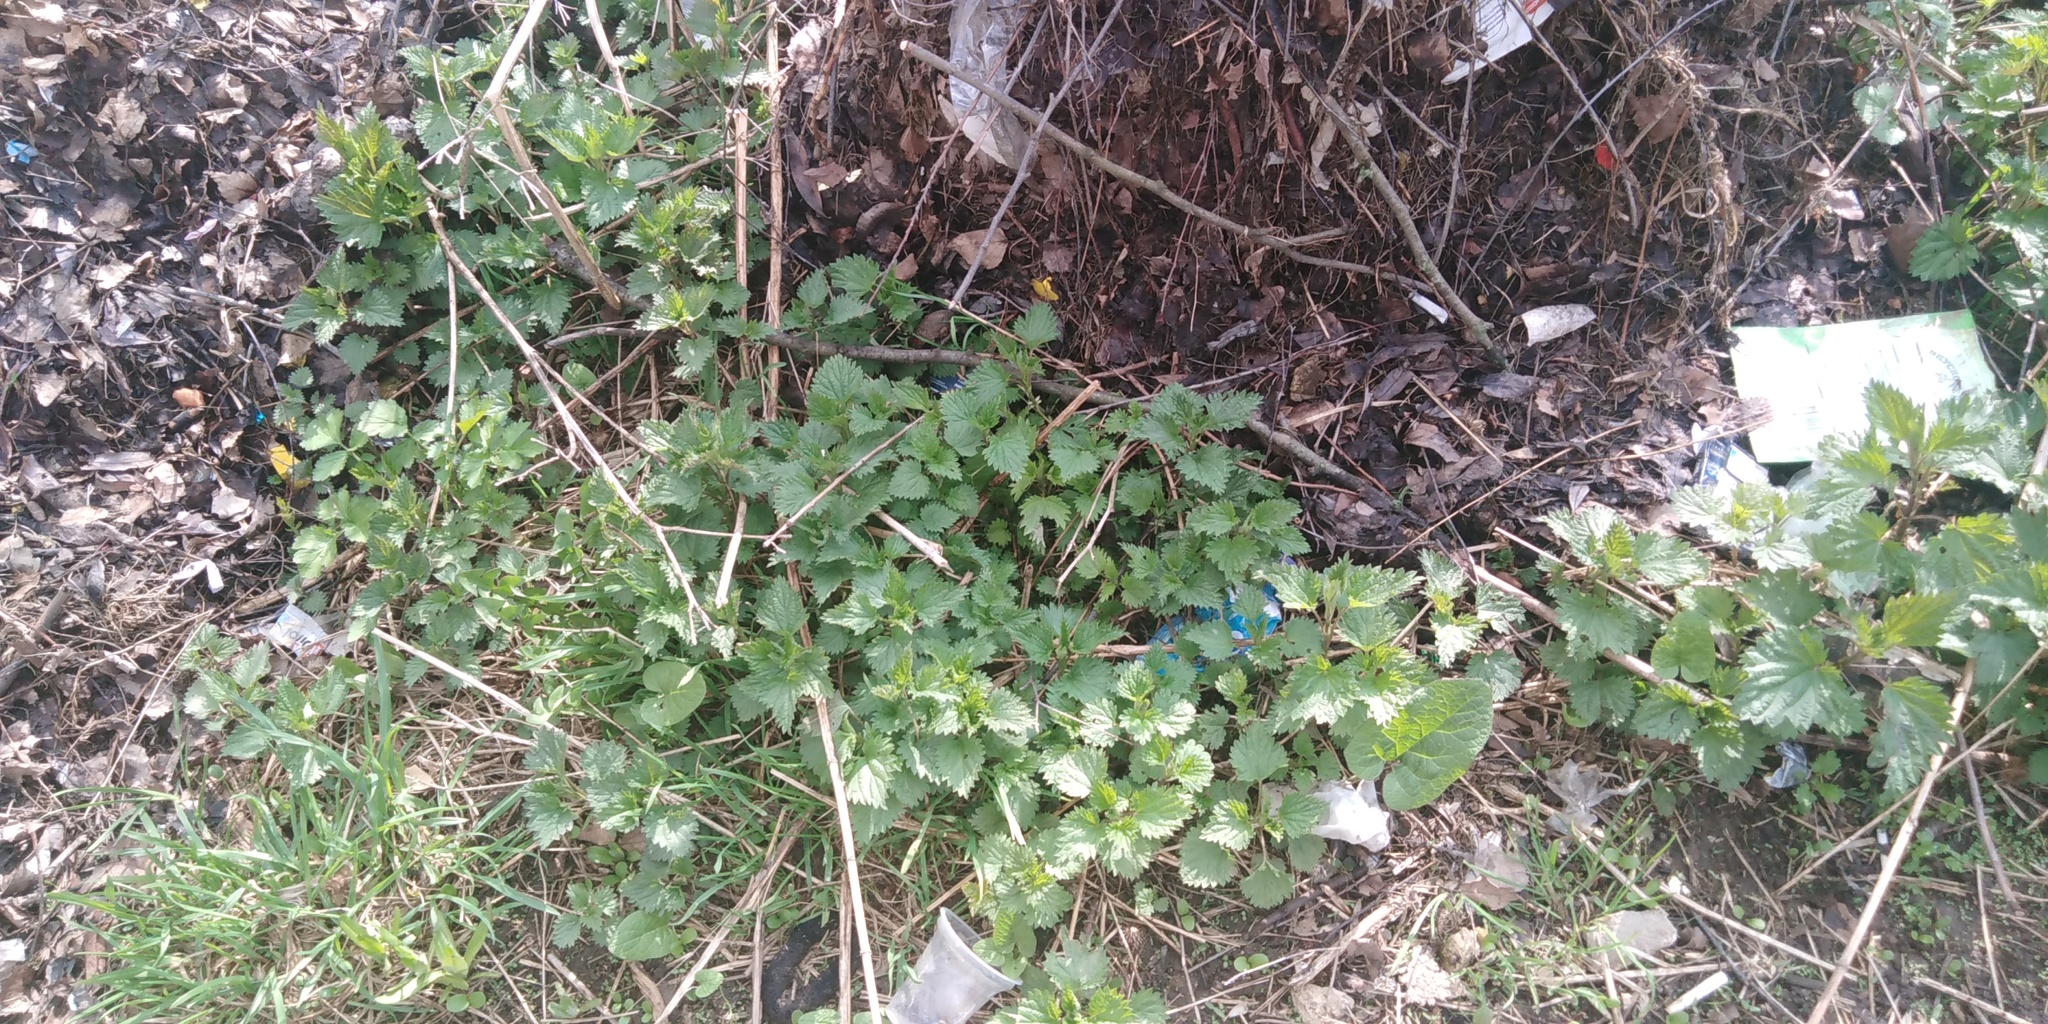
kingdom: Plantae
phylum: Tracheophyta
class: Magnoliopsida
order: Rosales
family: Urticaceae
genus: Urtica
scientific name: Urtica dioica
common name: Common nettle
